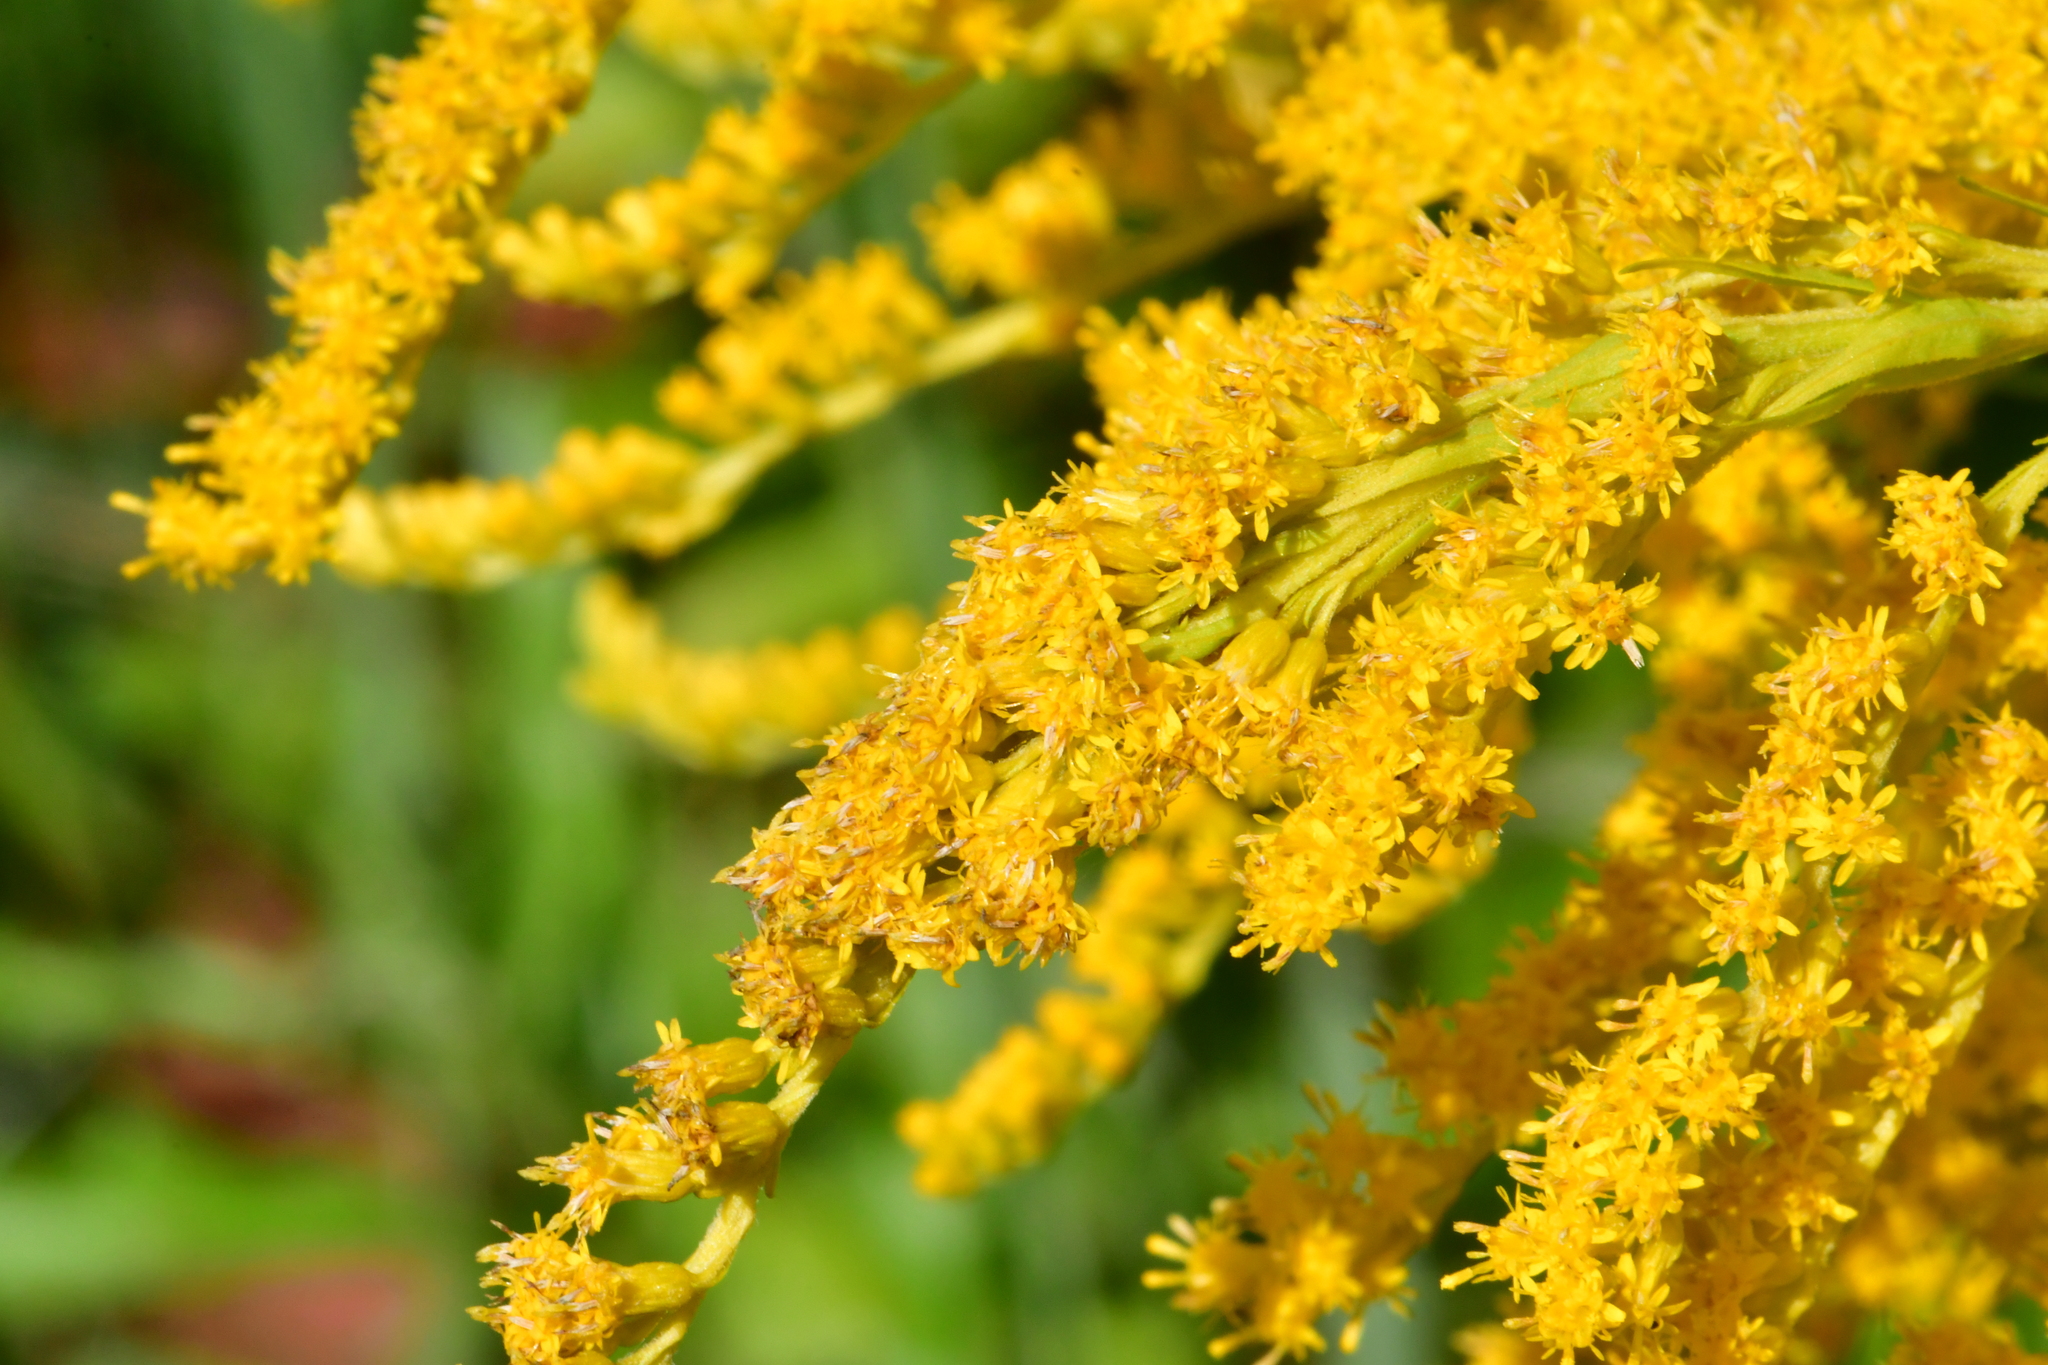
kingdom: Plantae
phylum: Tracheophyta
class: Magnoliopsida
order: Asterales
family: Asteraceae
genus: Solidago
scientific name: Solidago canadensis
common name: Canada goldenrod
